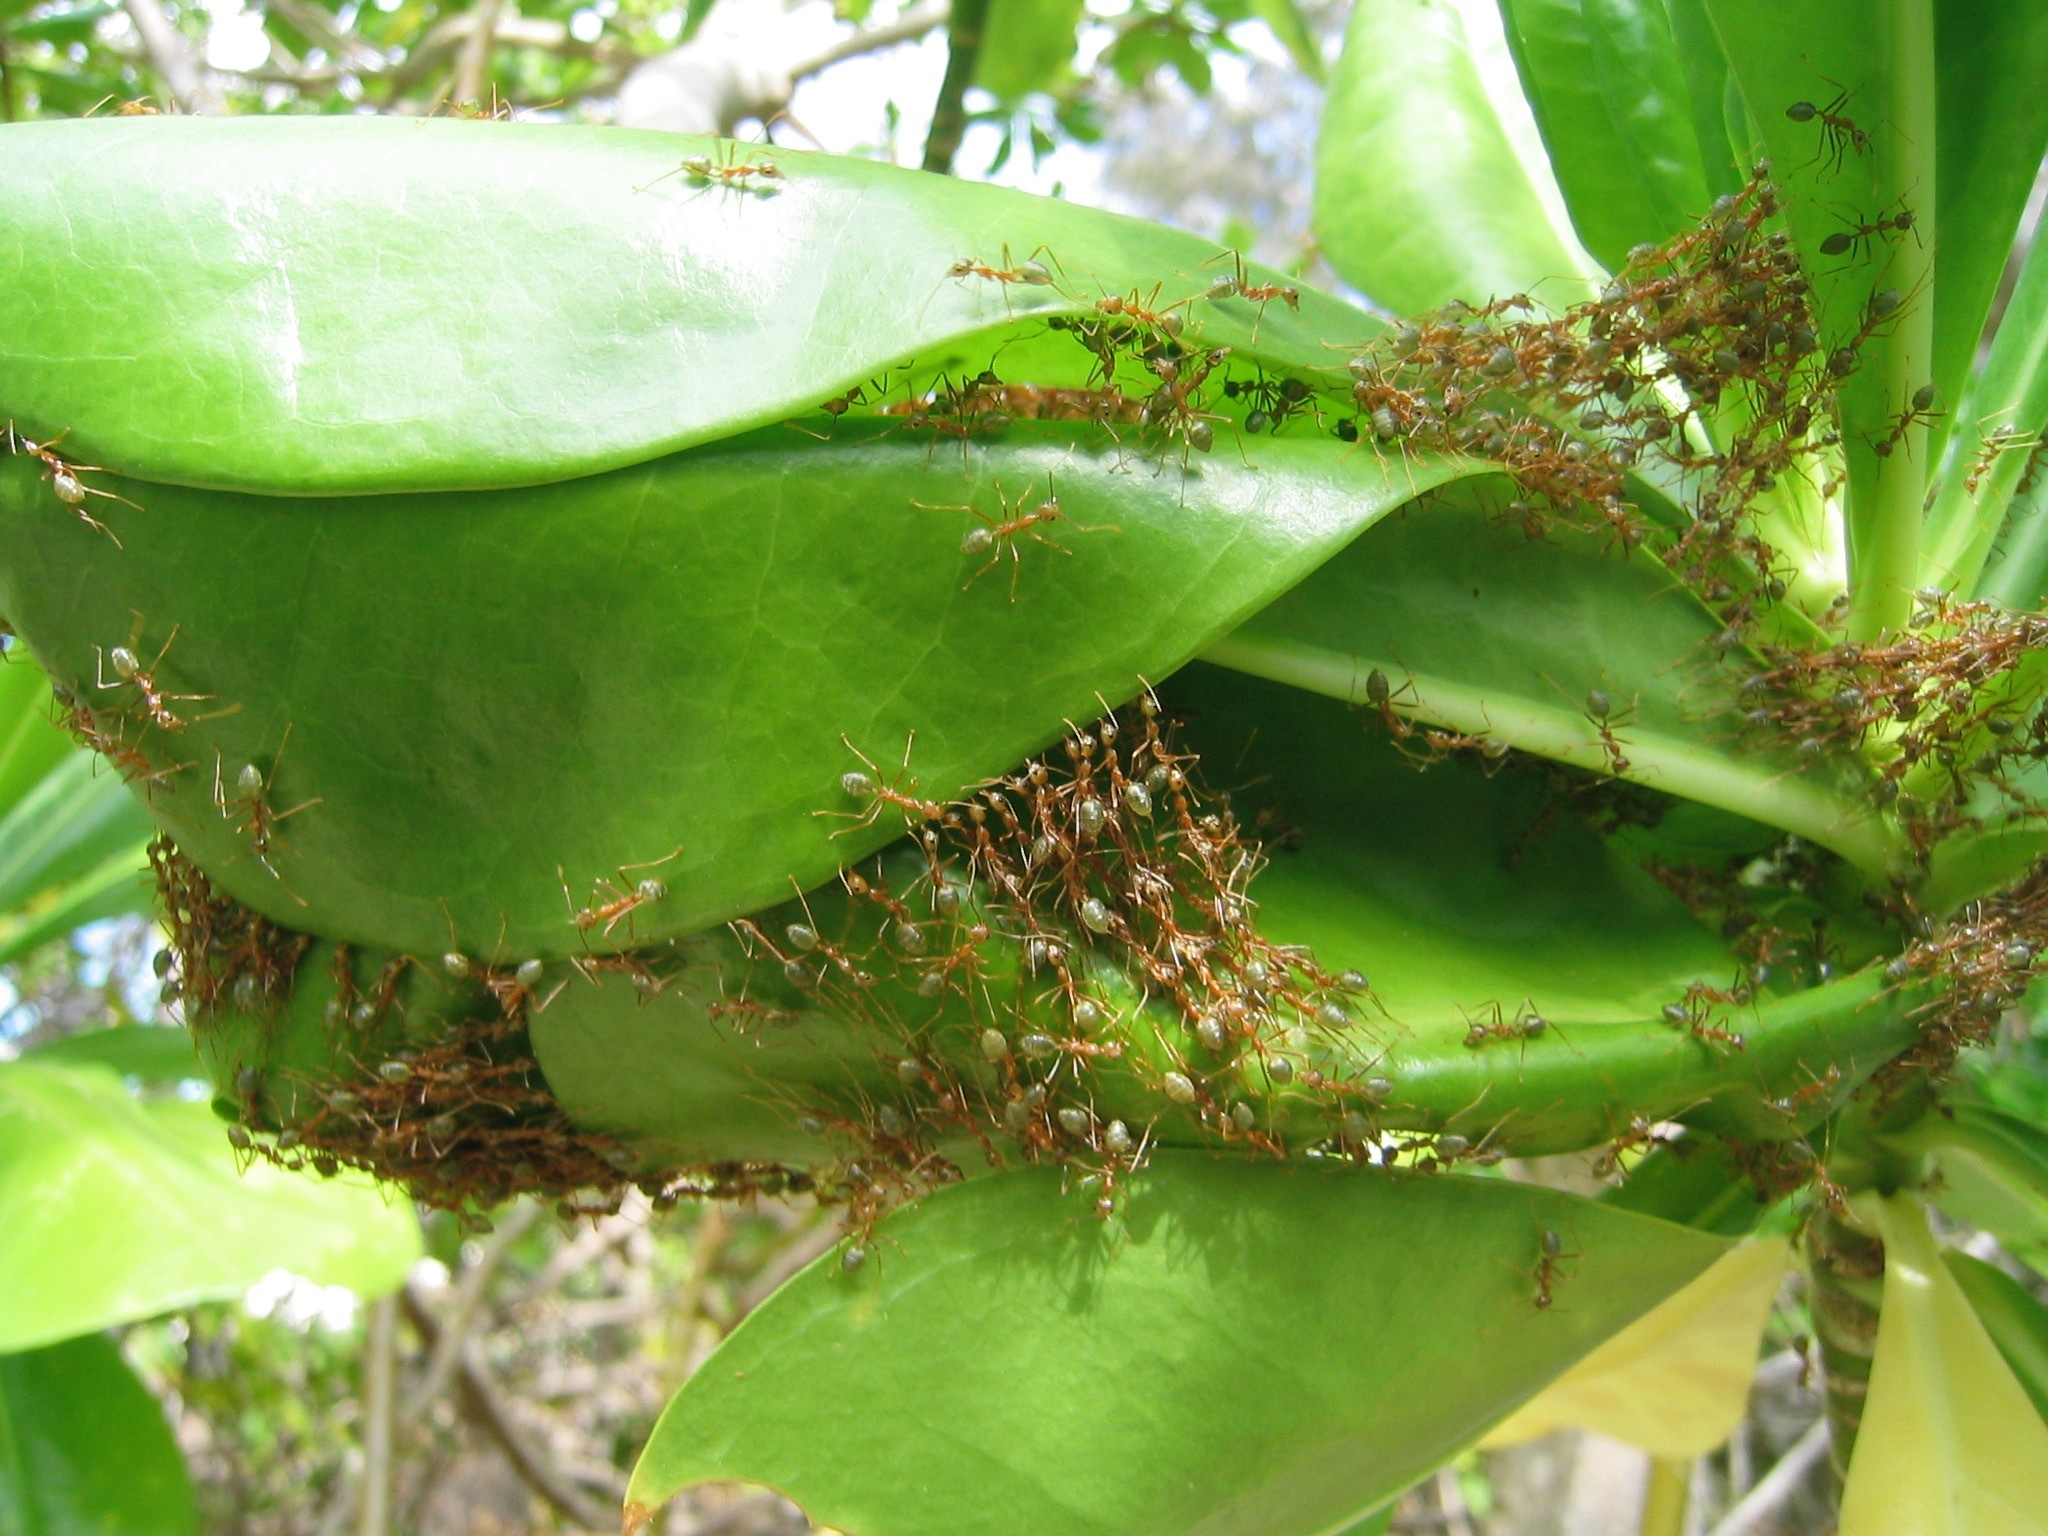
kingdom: Animalia
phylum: Arthropoda
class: Insecta
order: Hymenoptera
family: Formicidae
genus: Oecophylla
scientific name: Oecophylla smaragdina
